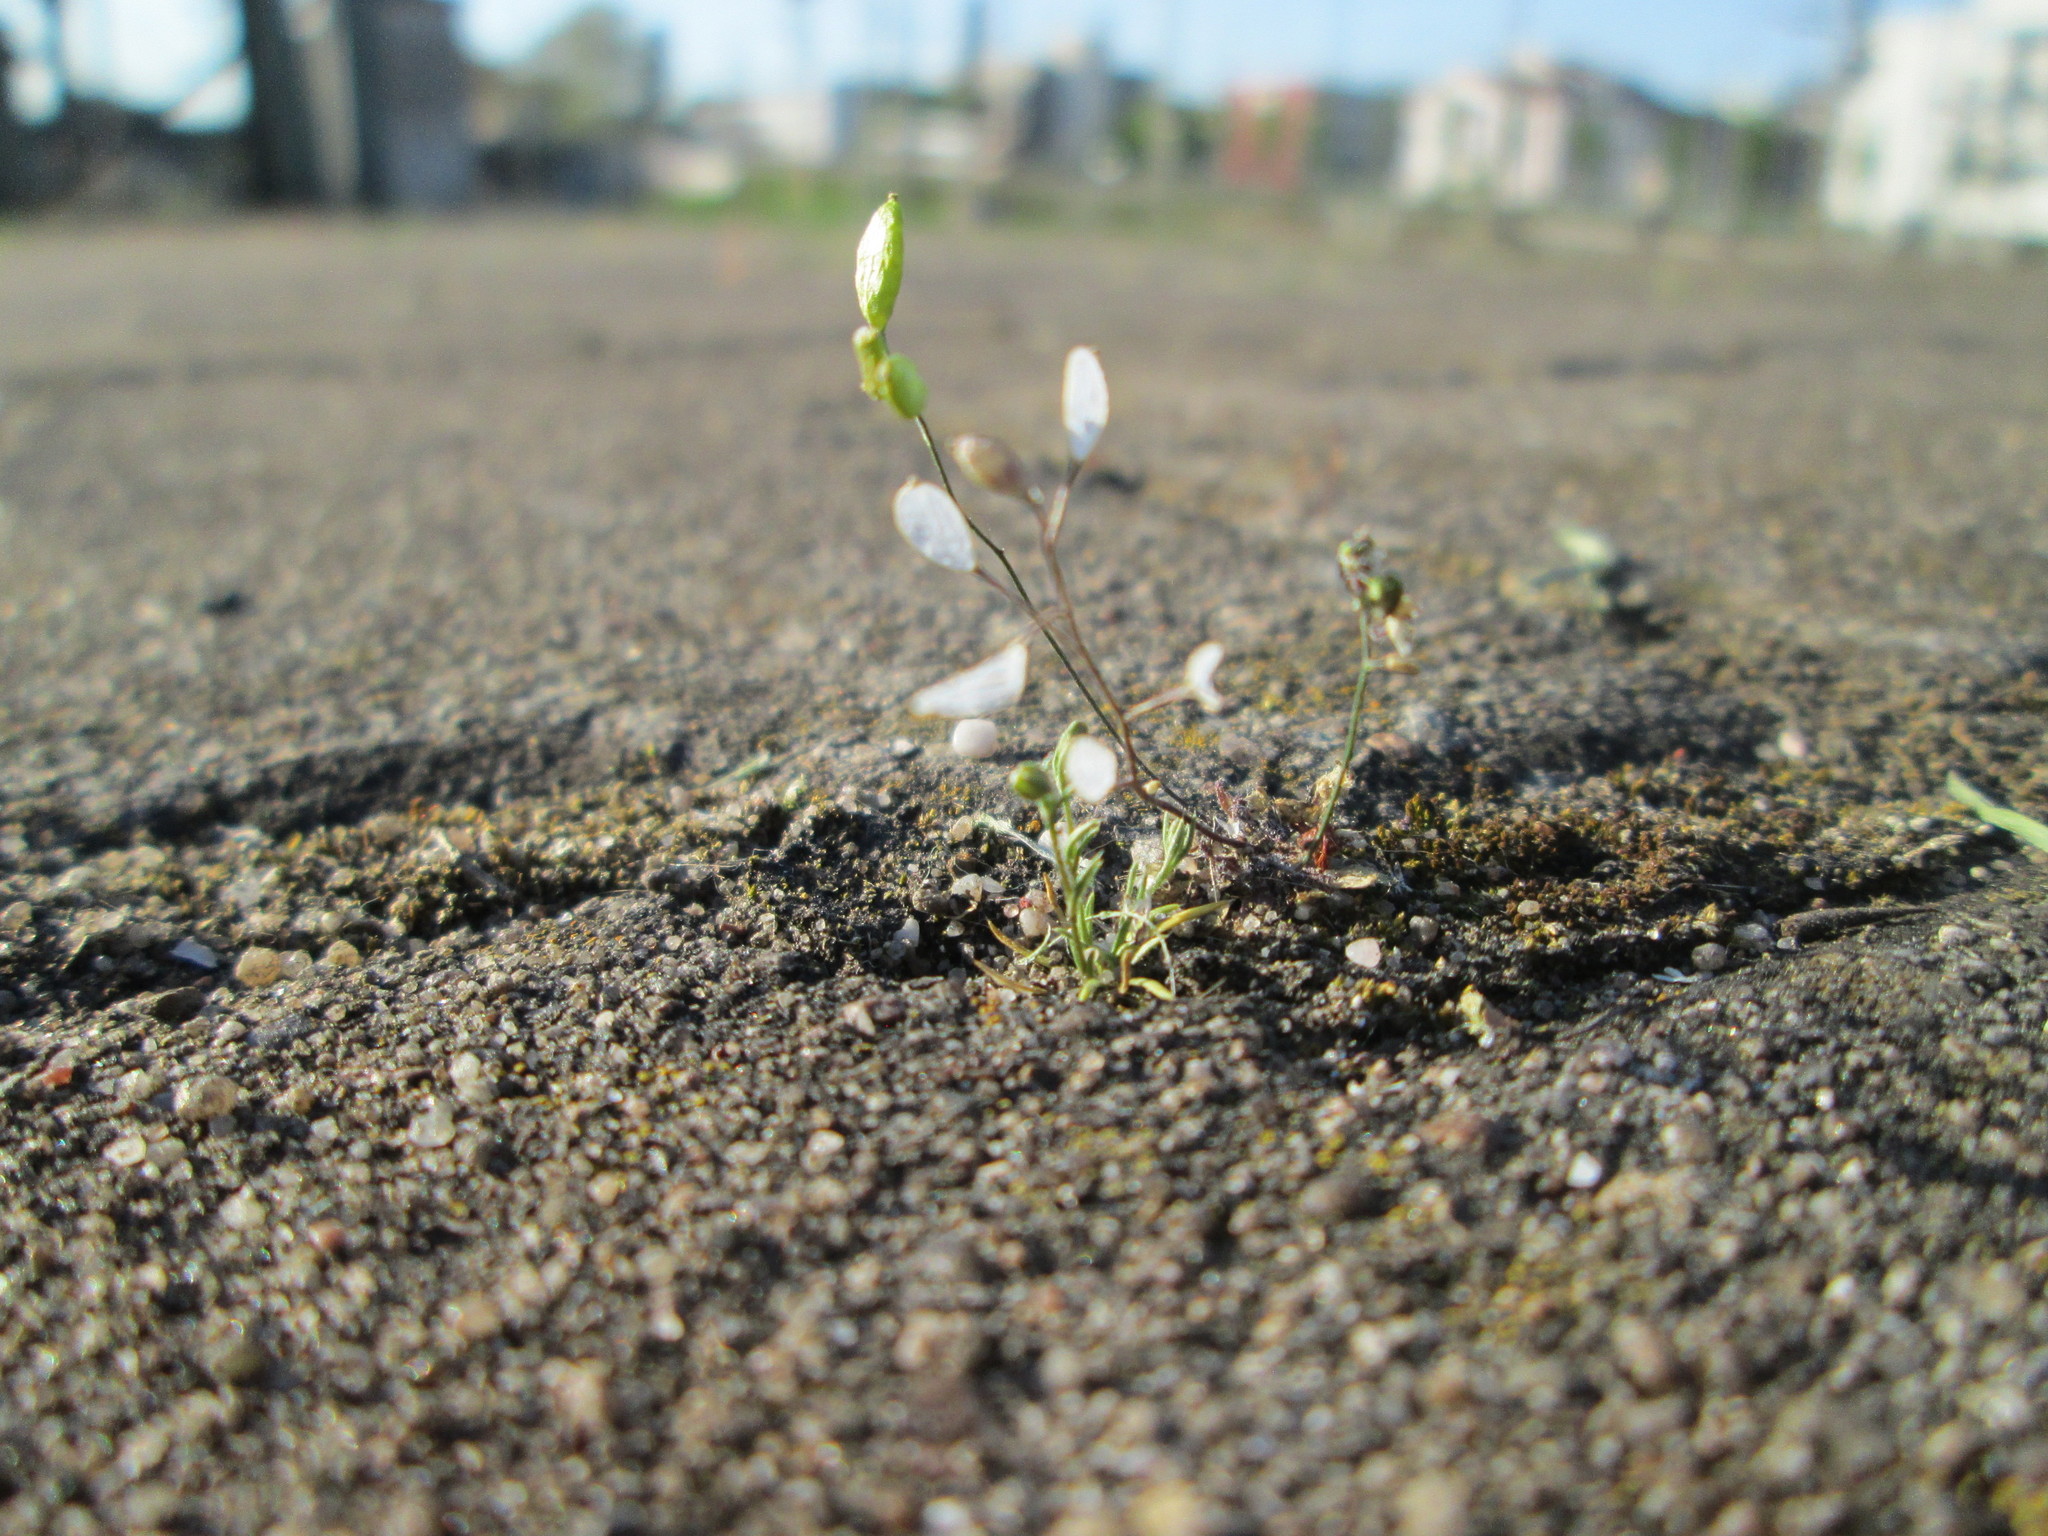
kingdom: Plantae
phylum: Tracheophyta
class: Magnoliopsida
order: Brassicales
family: Brassicaceae
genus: Draba
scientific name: Draba verna
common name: Spring draba
